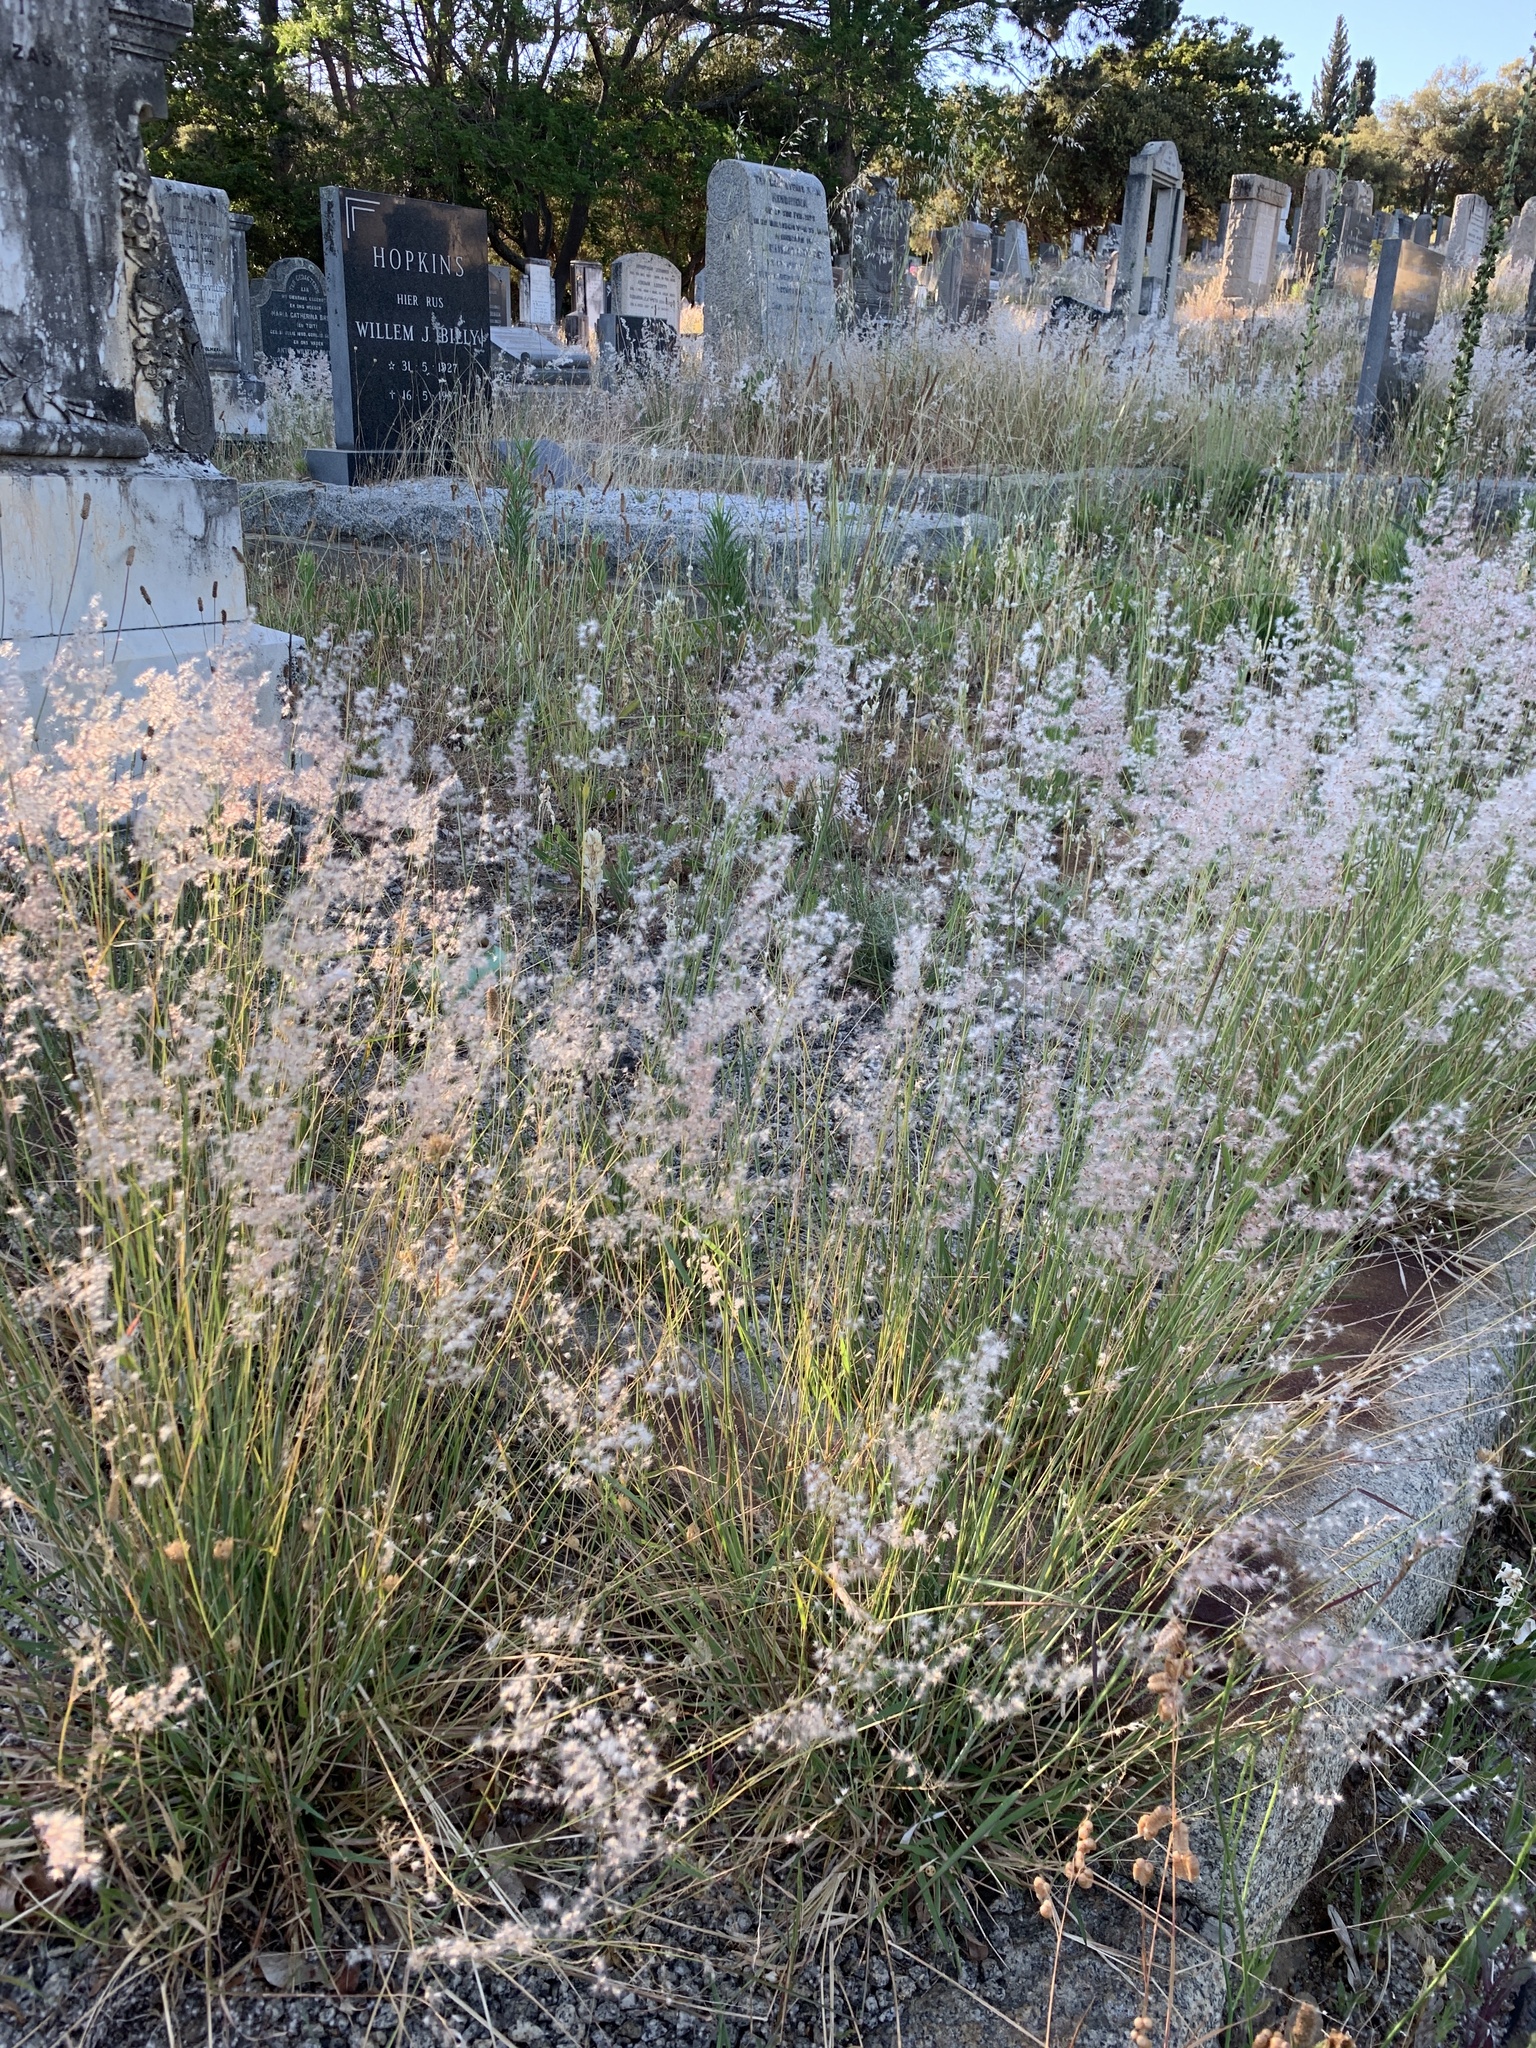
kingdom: Plantae
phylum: Tracheophyta
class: Liliopsida
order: Poales
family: Poaceae
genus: Melinis
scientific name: Melinis repens
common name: Rose natal grass
